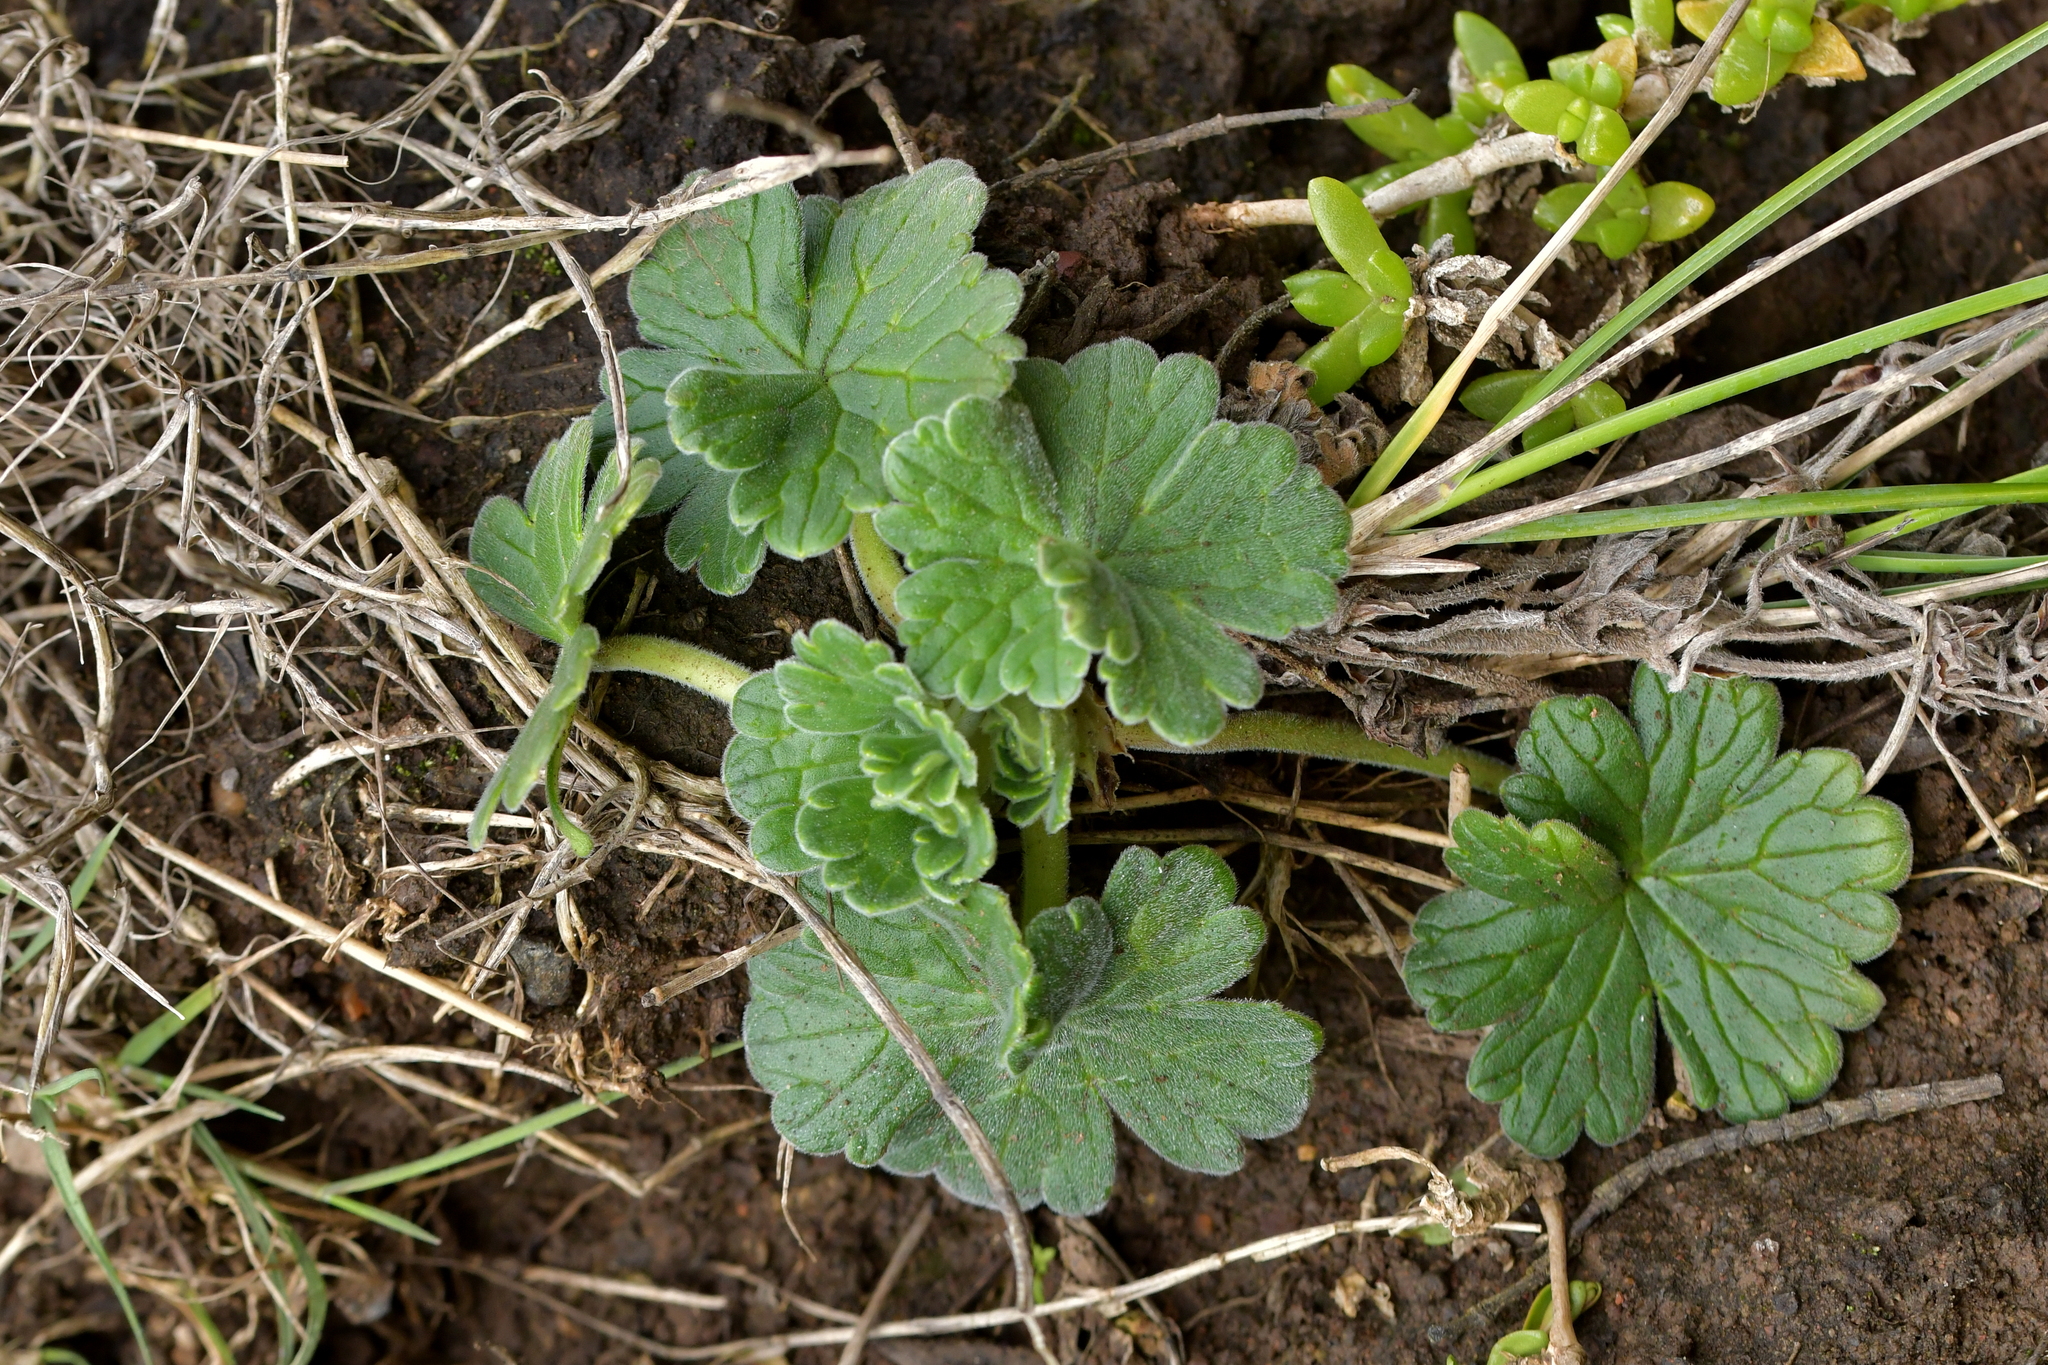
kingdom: Plantae
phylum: Tracheophyta
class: Magnoliopsida
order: Geraniales
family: Geraniaceae
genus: Geranium
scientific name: Geranium traversii
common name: Cranesbill
